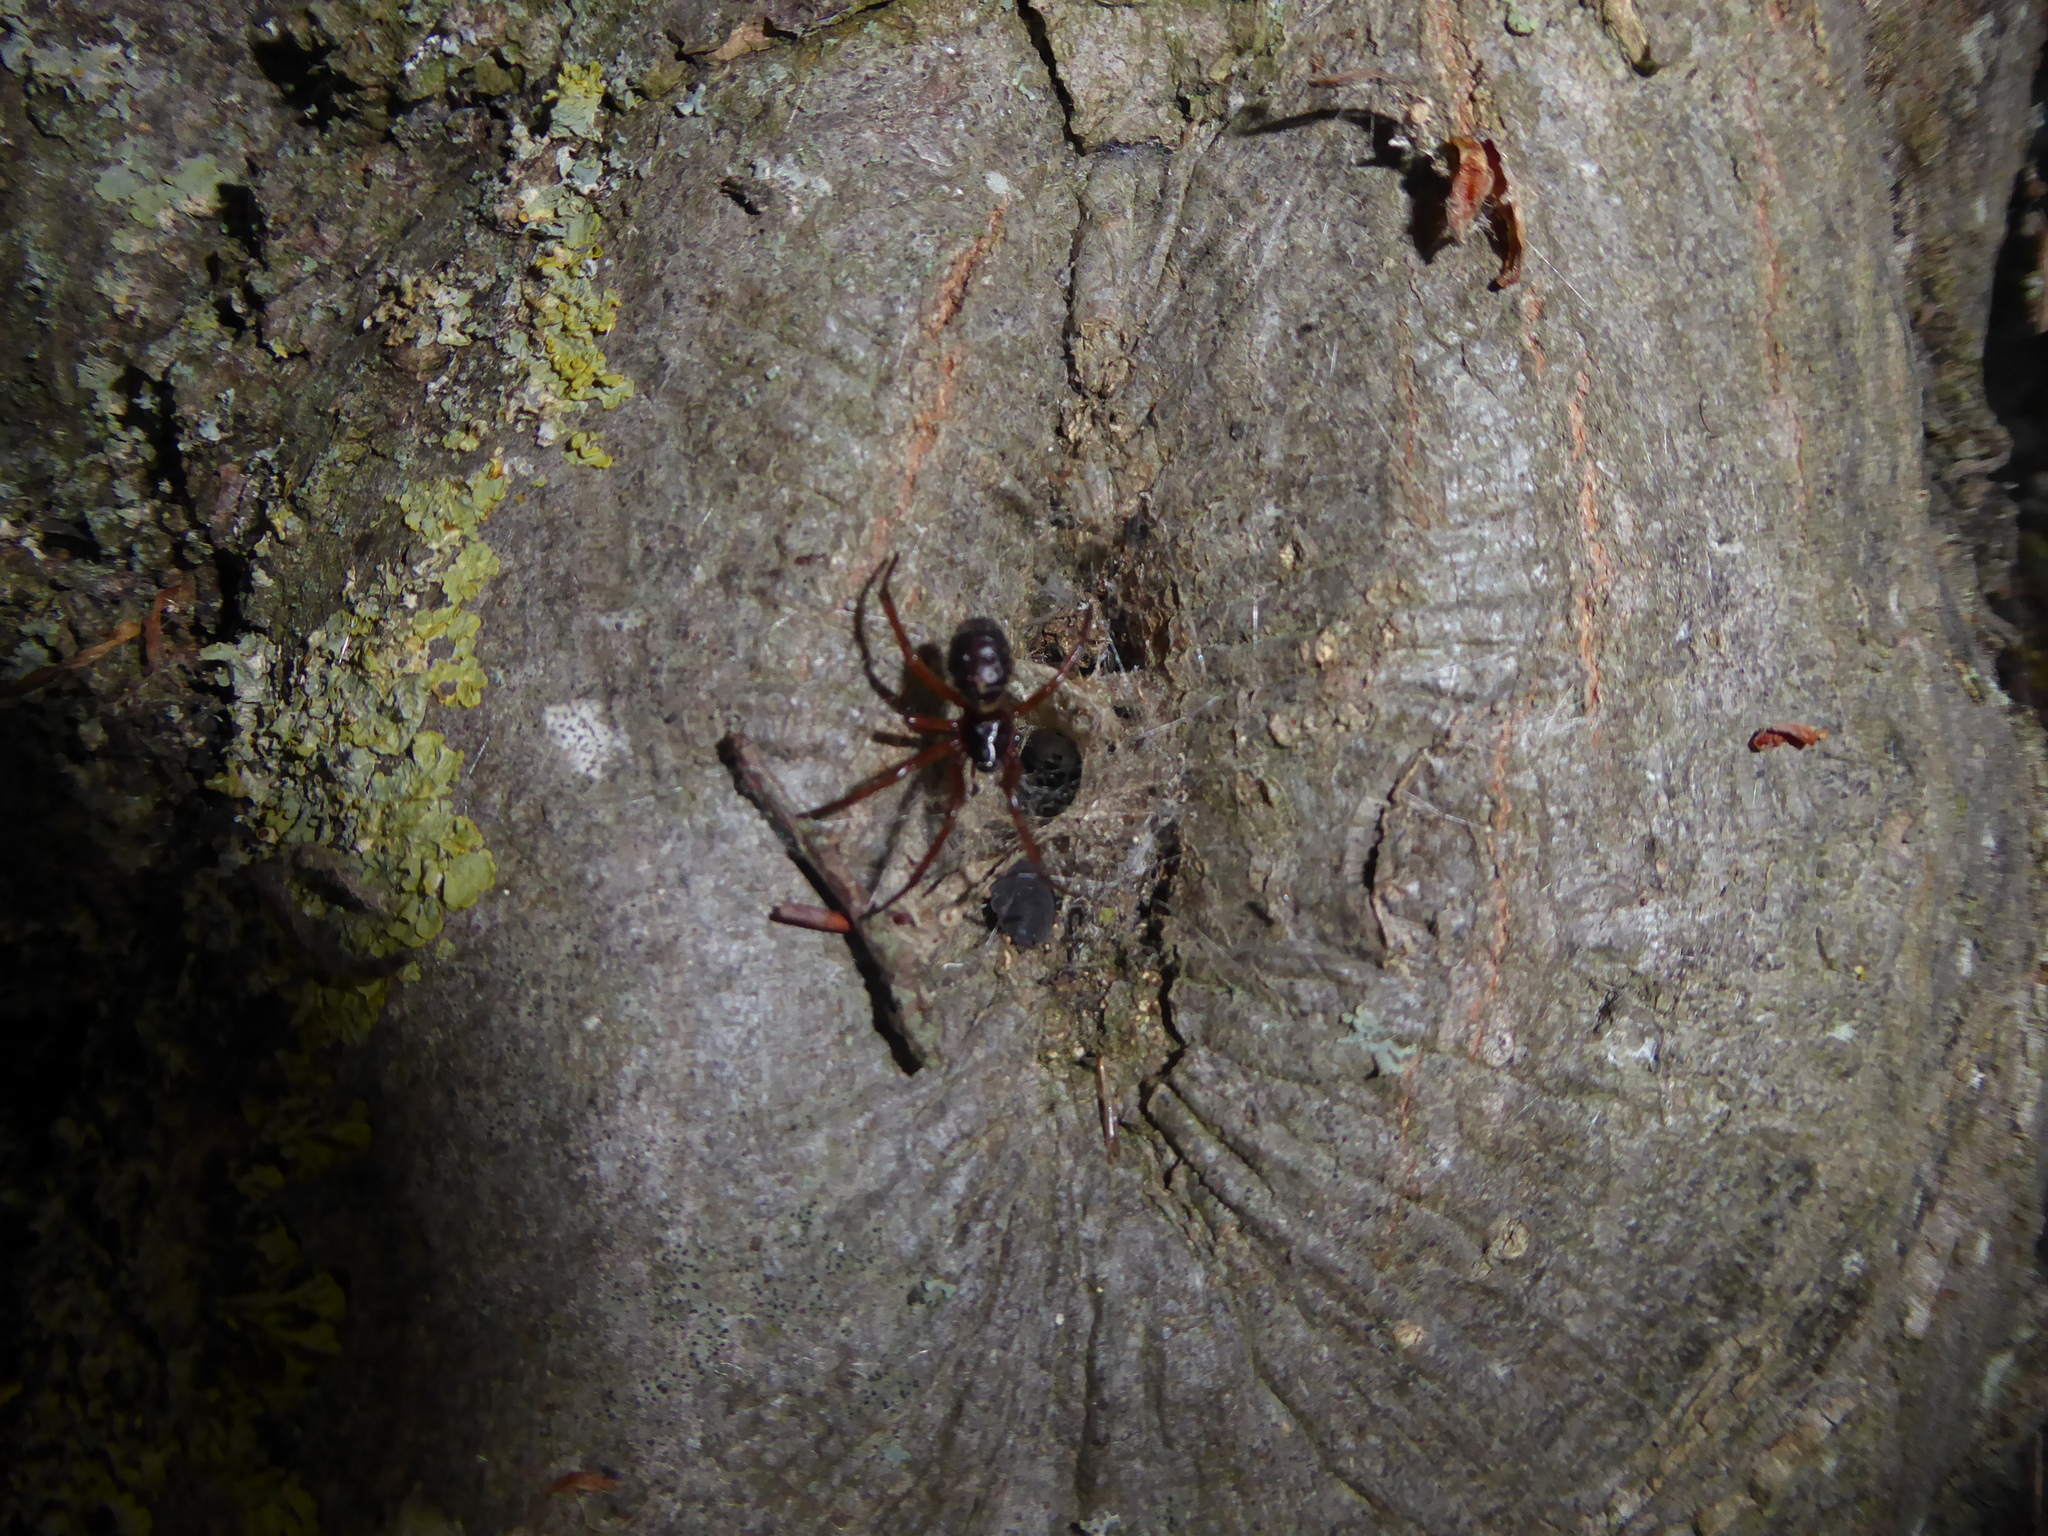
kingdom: Animalia
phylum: Arthropoda
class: Arachnida
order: Araneae
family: Theridiidae
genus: Steatoda
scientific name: Steatoda nobilis
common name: Cobweb weaver
